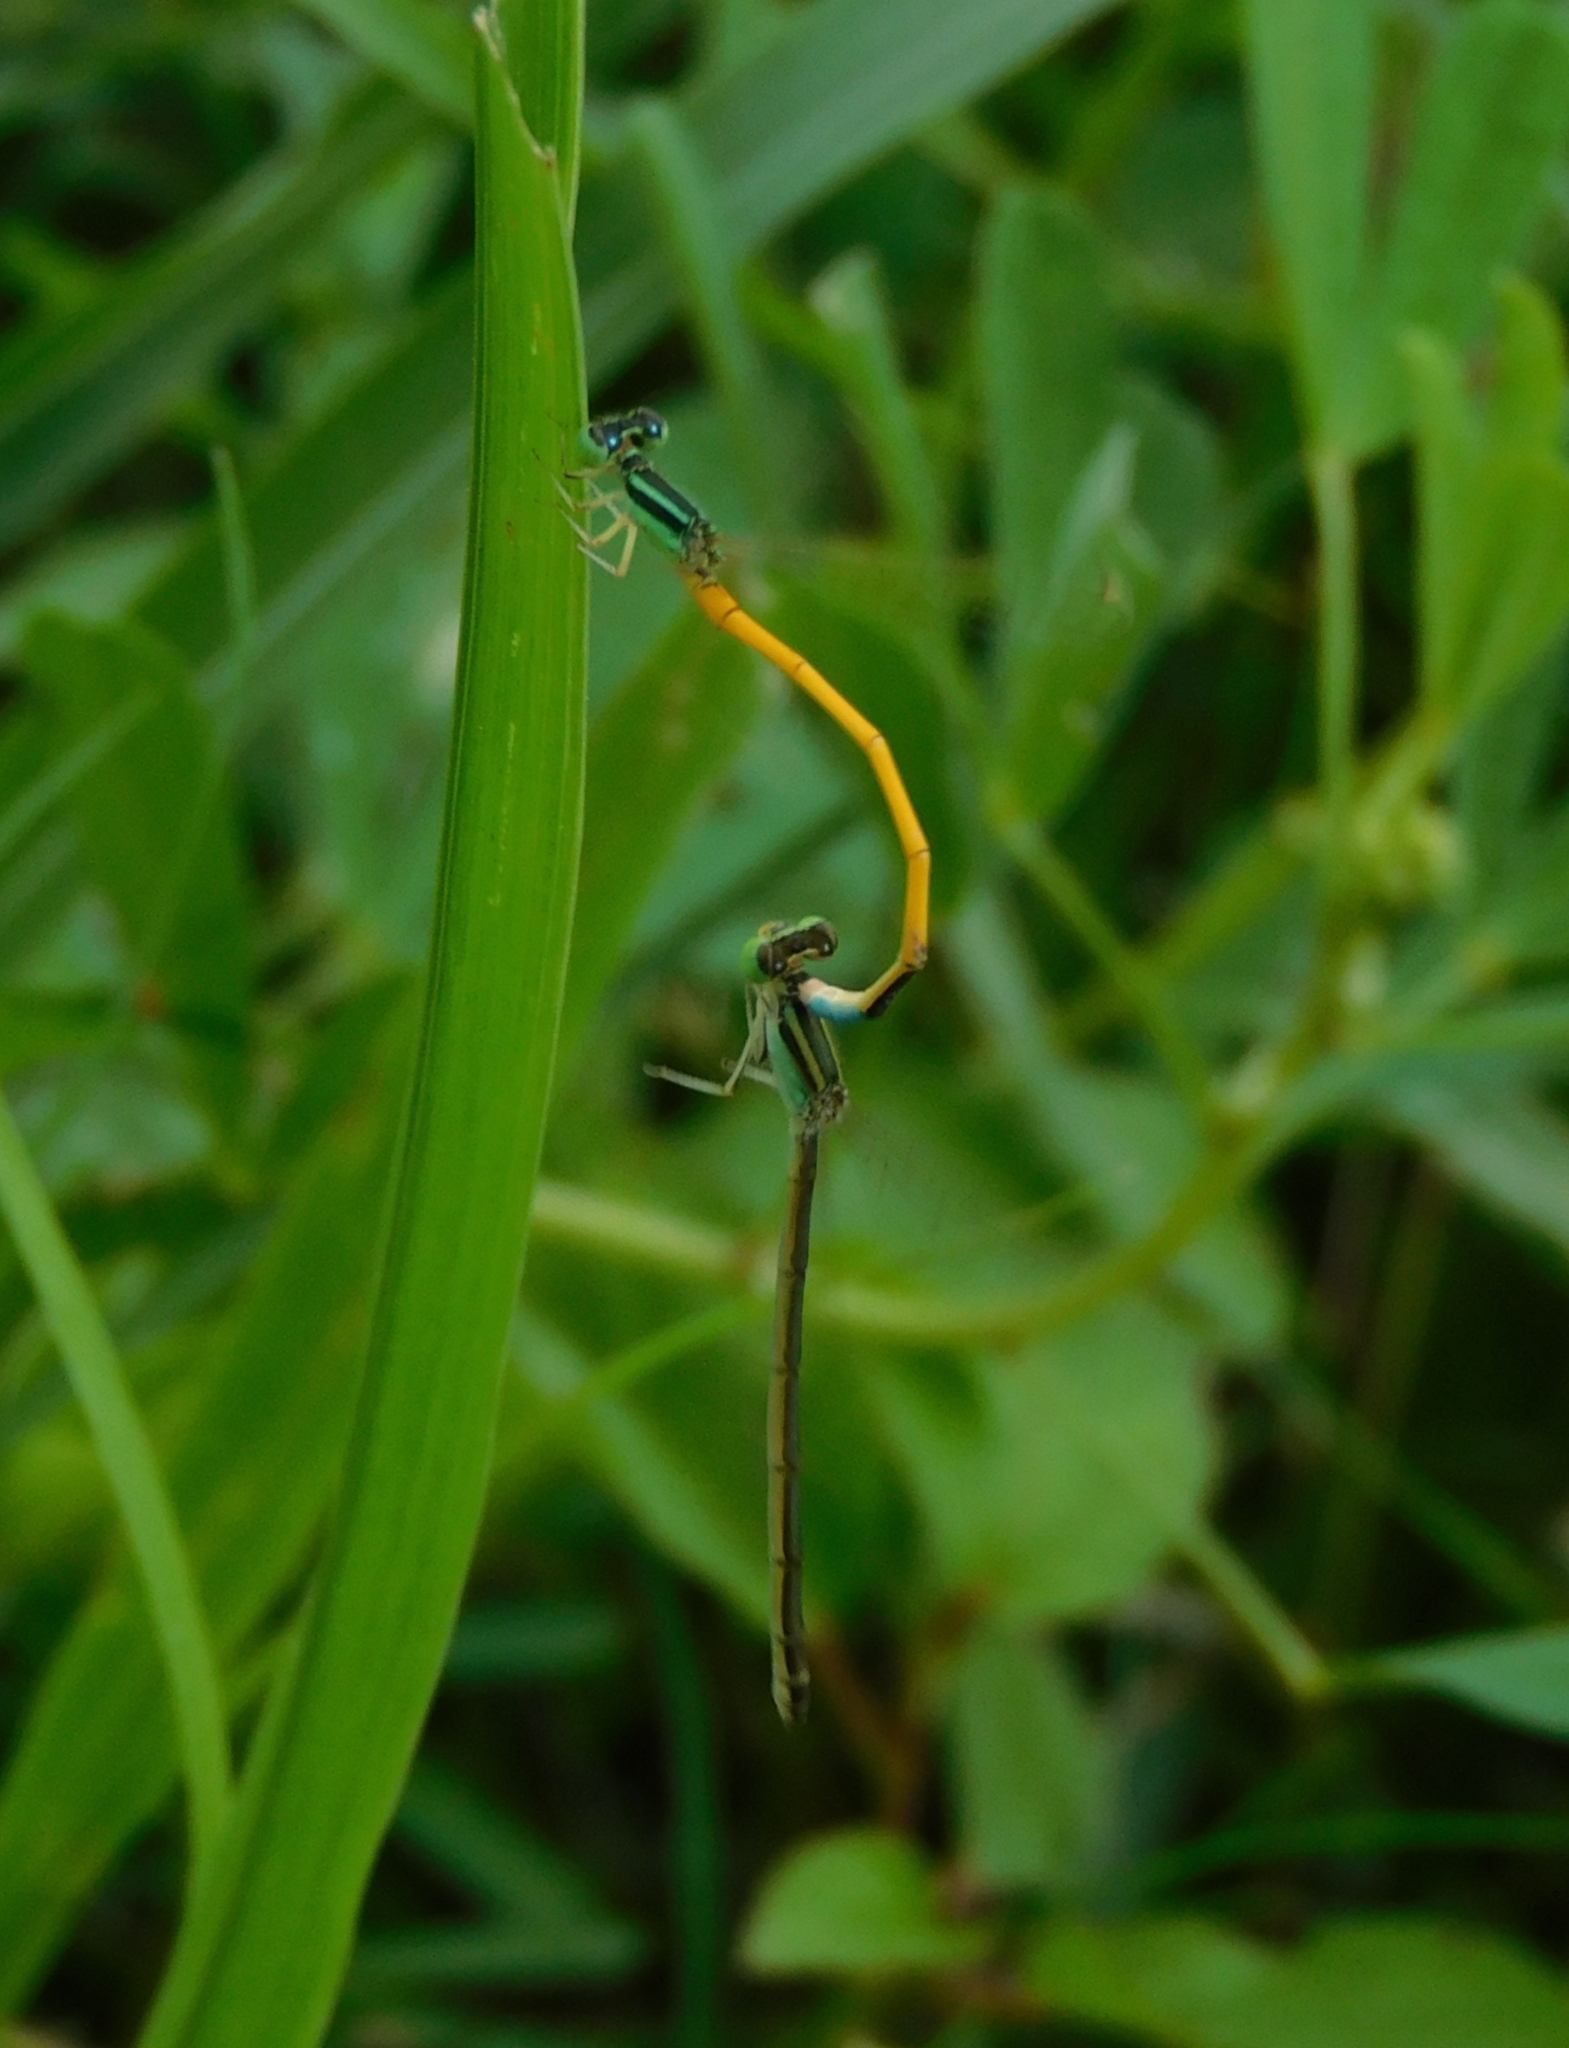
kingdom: Animalia
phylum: Arthropoda
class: Insecta
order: Odonata
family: Coenagrionidae
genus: Ischnura
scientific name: Ischnura rubilio
